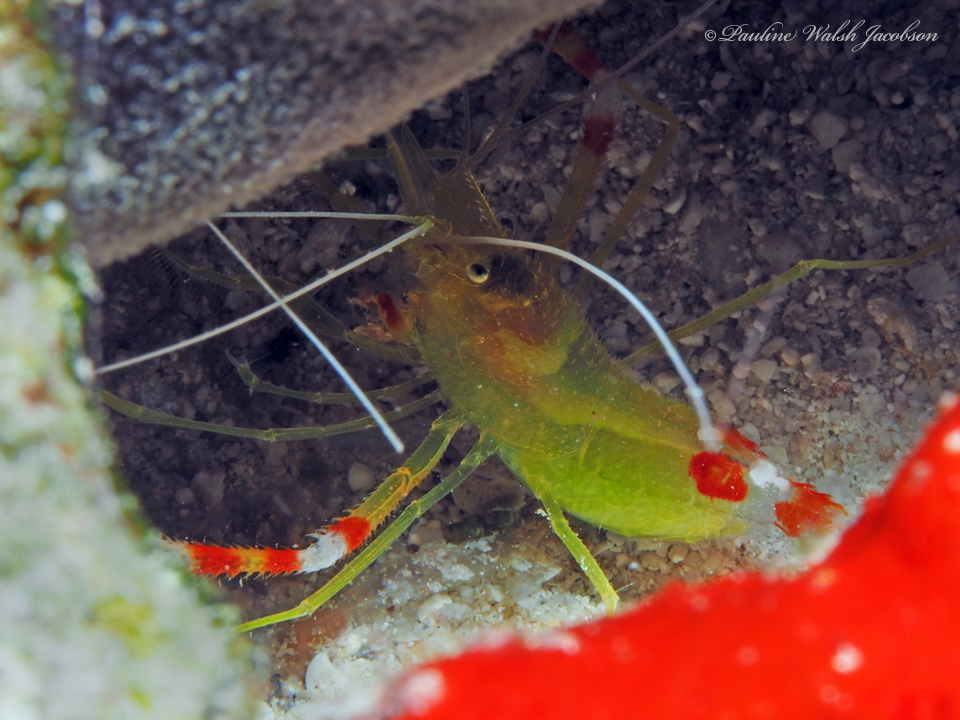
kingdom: Animalia
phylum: Arthropoda
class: Malacostraca
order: Decapoda
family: Stenopodidae
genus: Stenopus
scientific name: Stenopus scutellatus
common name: Golden coral shrimp
